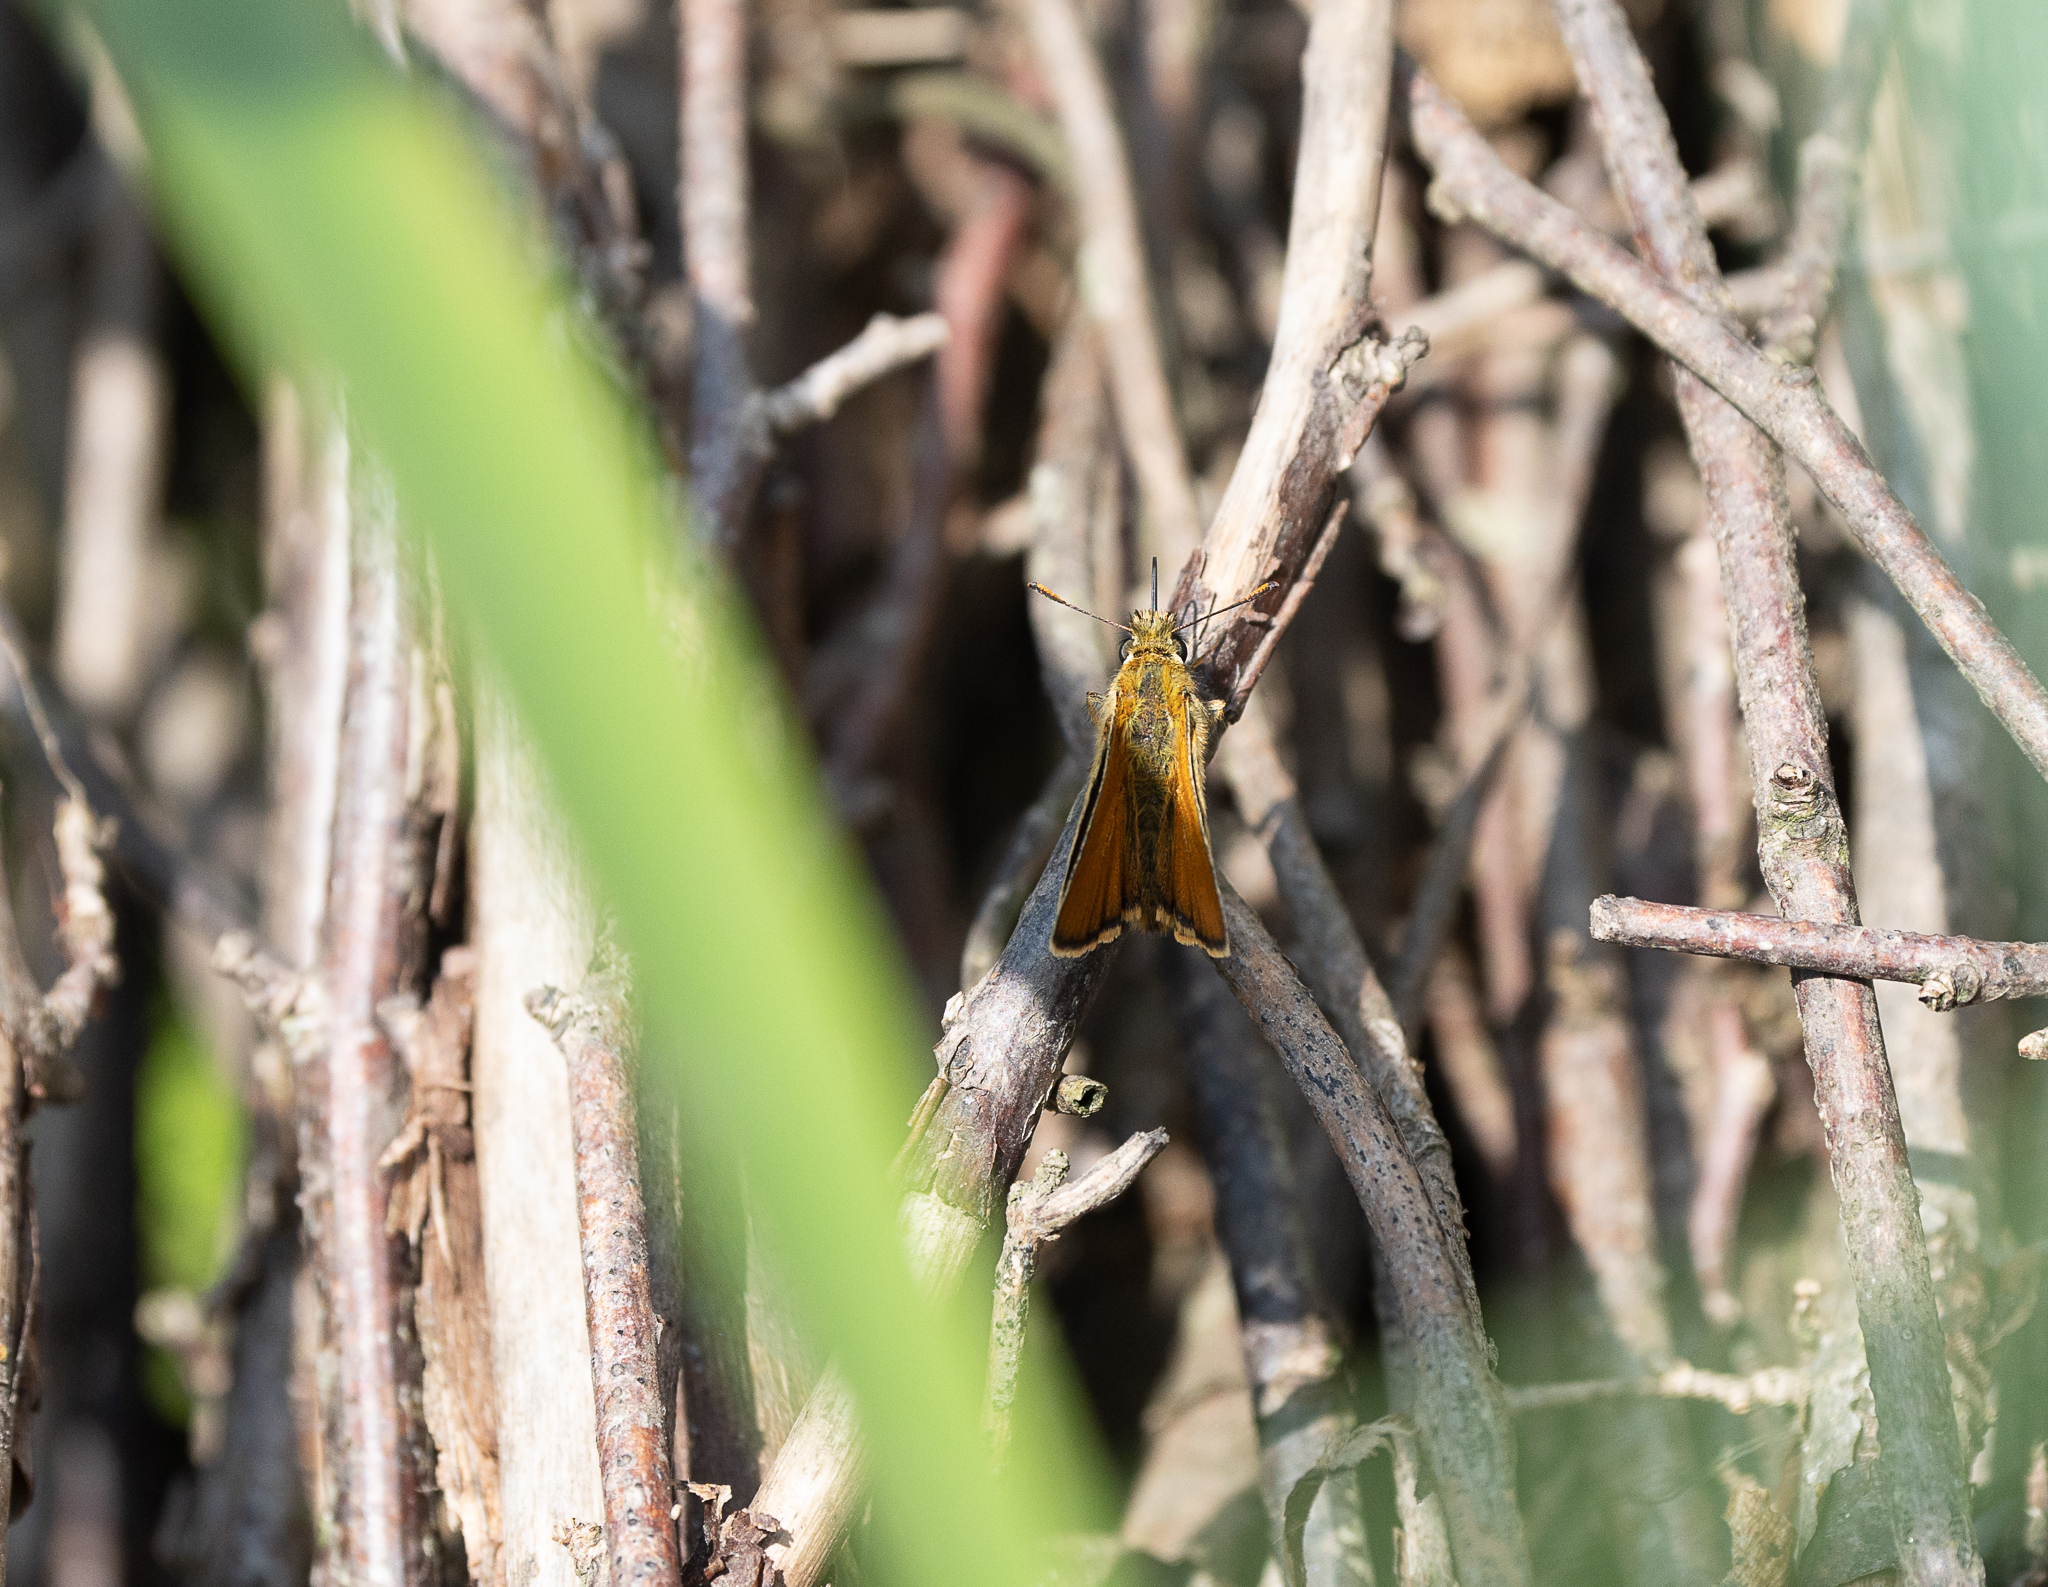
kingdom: Animalia
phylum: Arthropoda
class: Insecta
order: Lepidoptera
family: Hesperiidae
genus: Thymelicus
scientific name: Thymelicus sylvestris
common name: Small skipper
